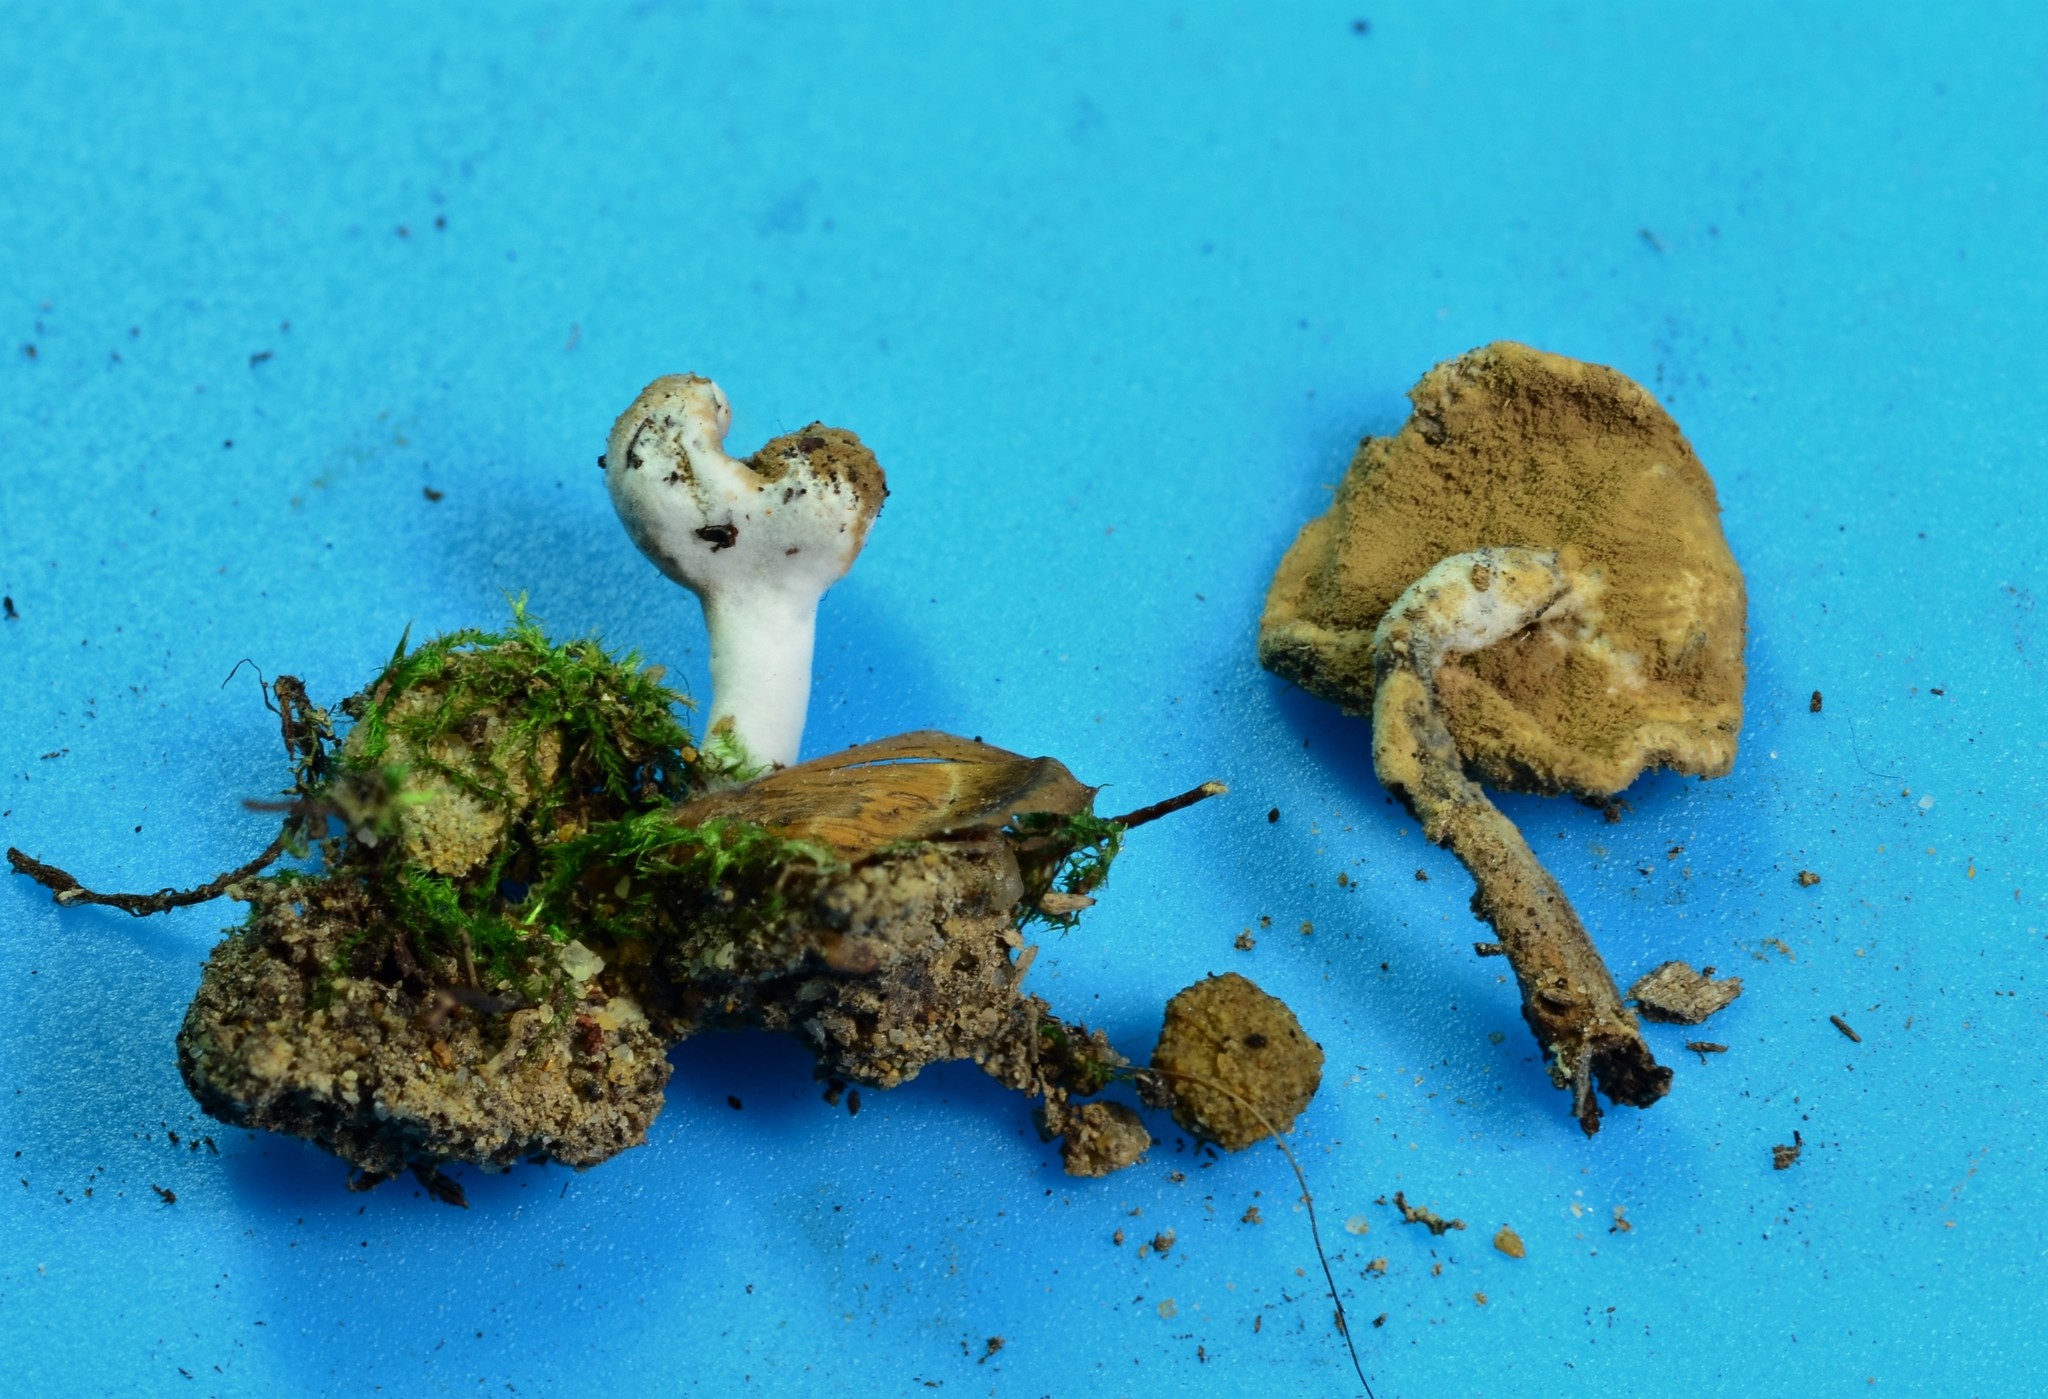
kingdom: Fungi
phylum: Ascomycota
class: Sordariomycetes
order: Hypocreales
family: Hypocreaceae
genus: Hypomyces
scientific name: Hypomyces cervinus
